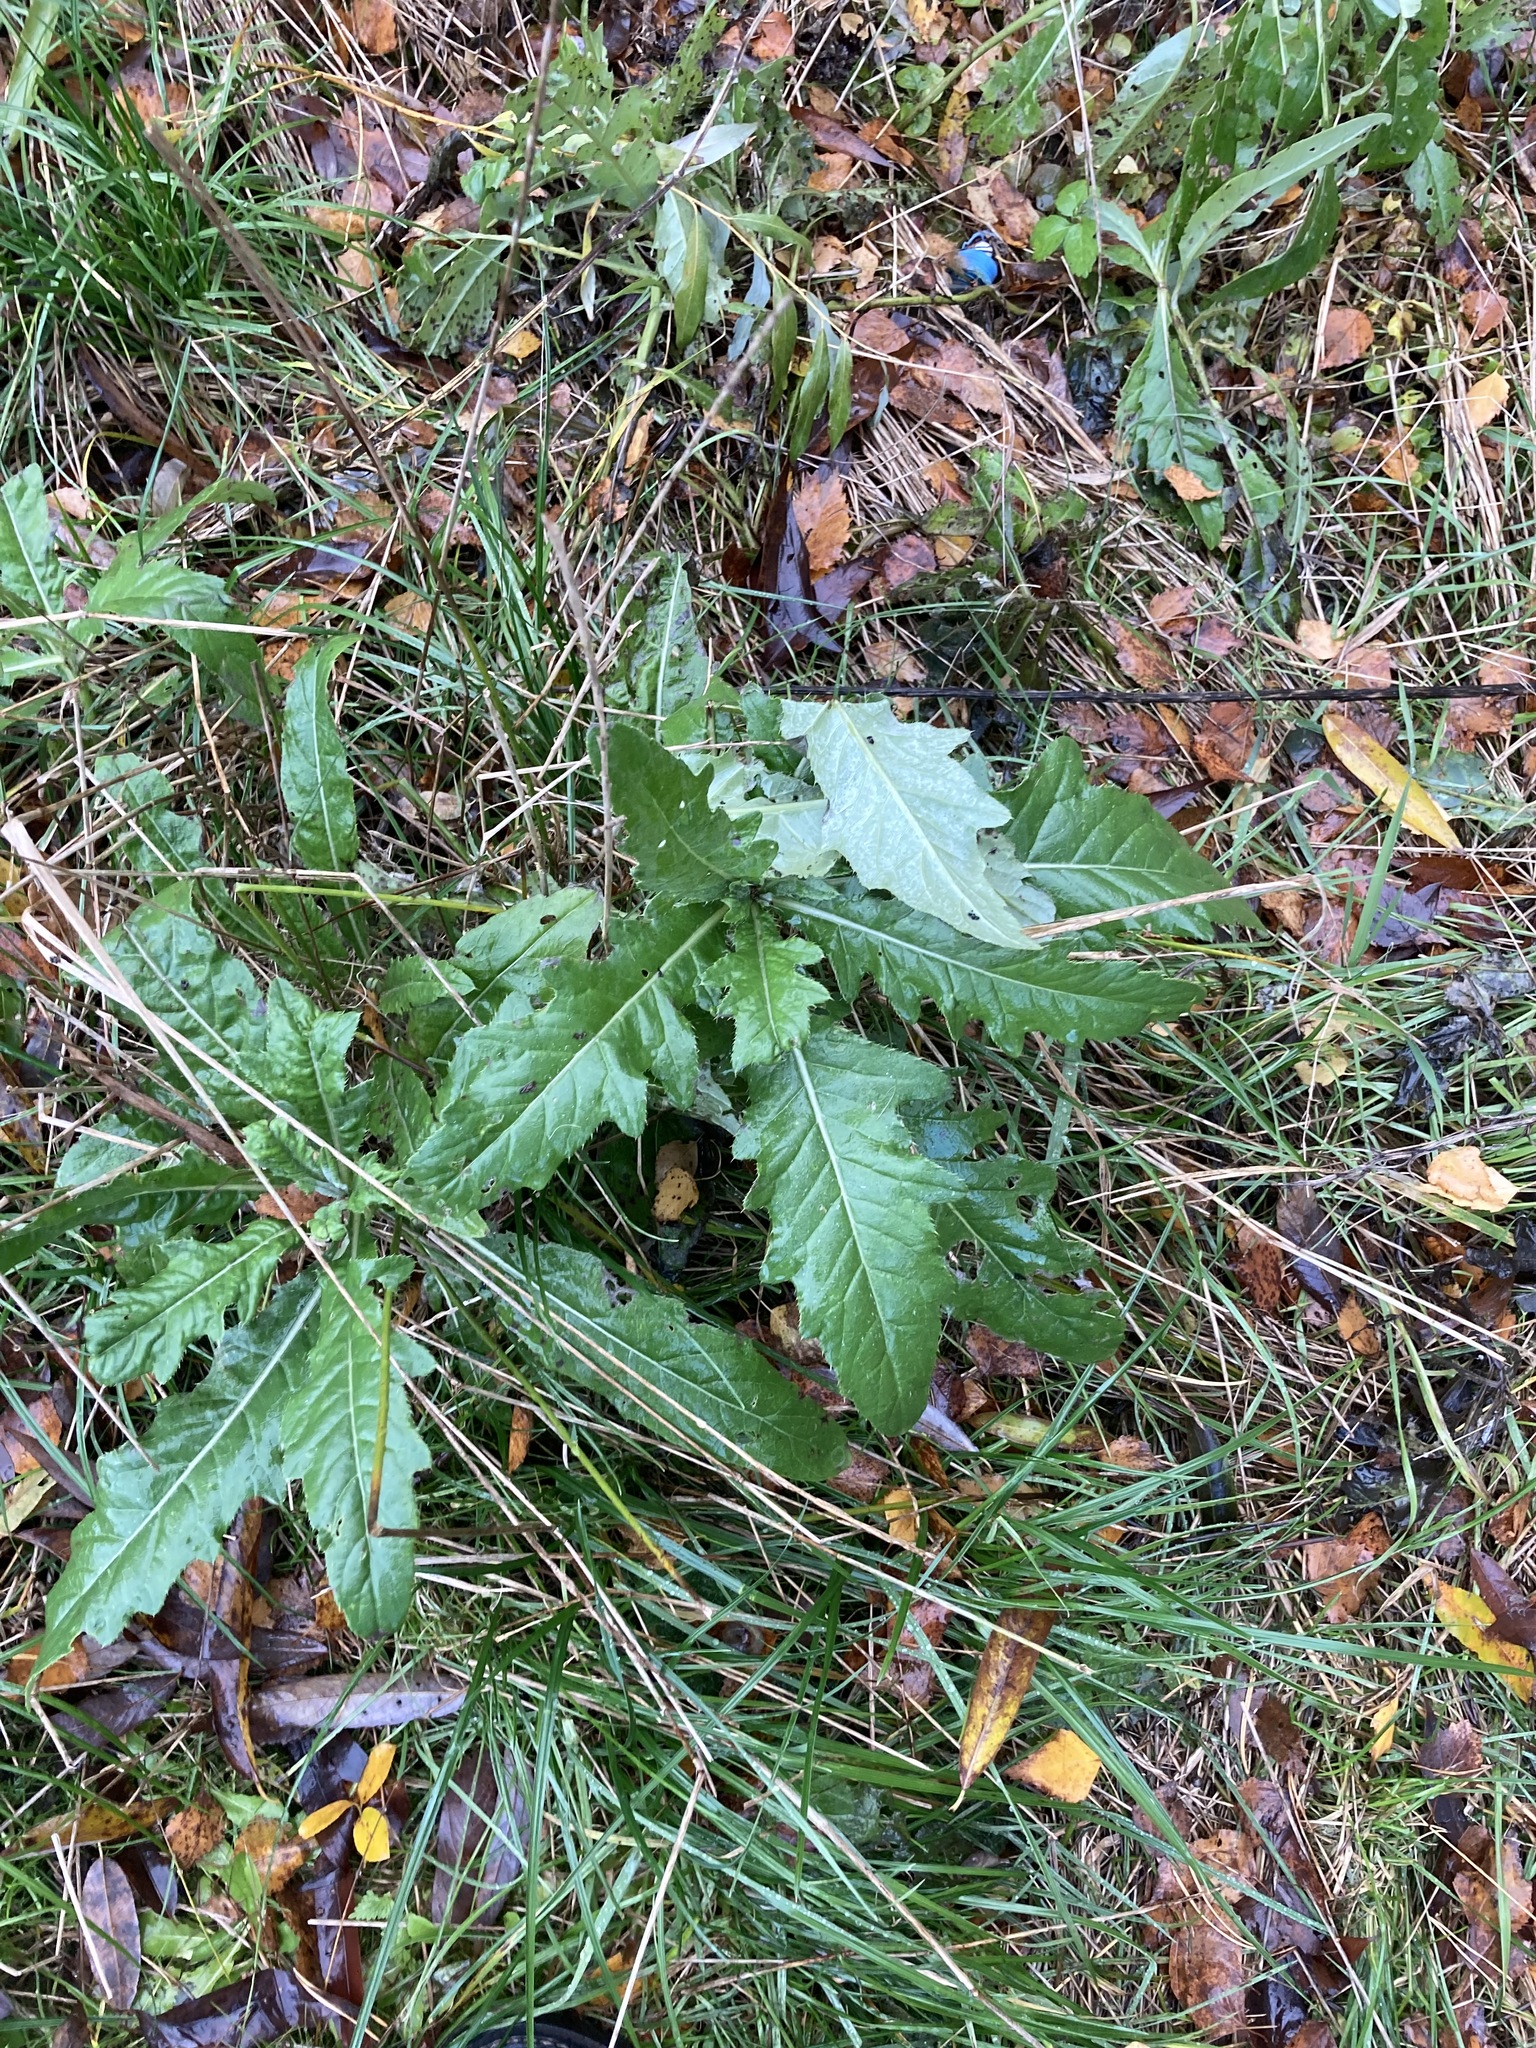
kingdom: Plantae
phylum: Tracheophyta
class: Magnoliopsida
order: Asterales
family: Asteraceae
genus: Cirsium
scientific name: Cirsium arvense
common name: Creeping thistle
